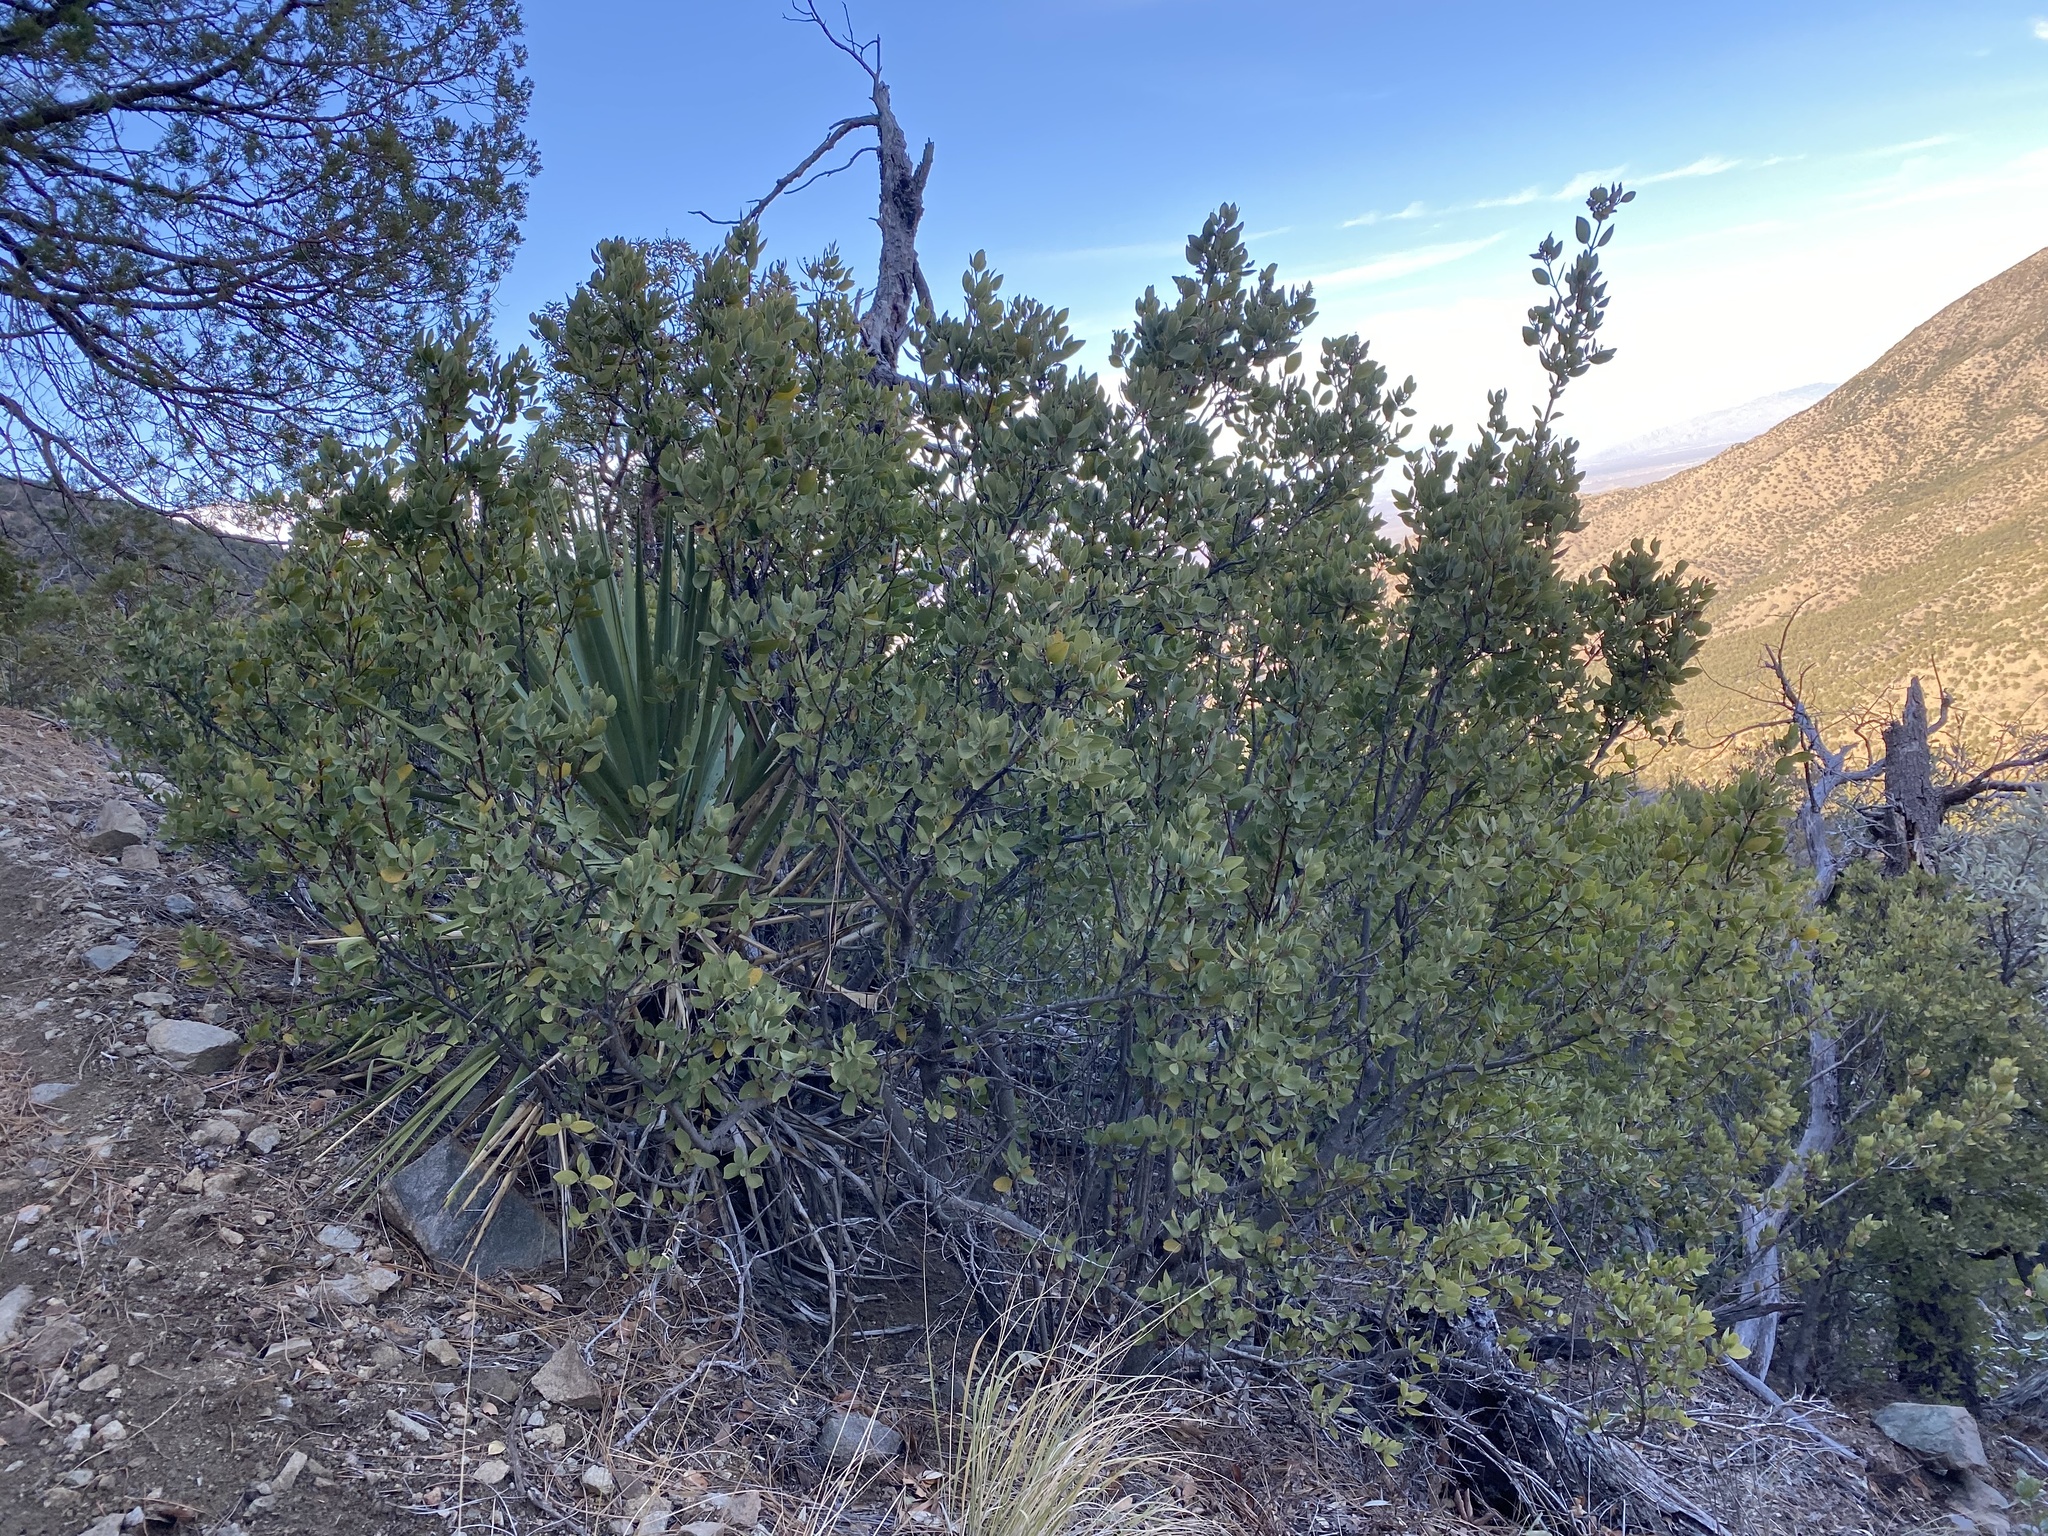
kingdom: Plantae
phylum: Tracheophyta
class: Magnoliopsida
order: Garryales
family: Garryaceae
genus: Garrya
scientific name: Garrya wrightii
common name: Wright's silktassel
